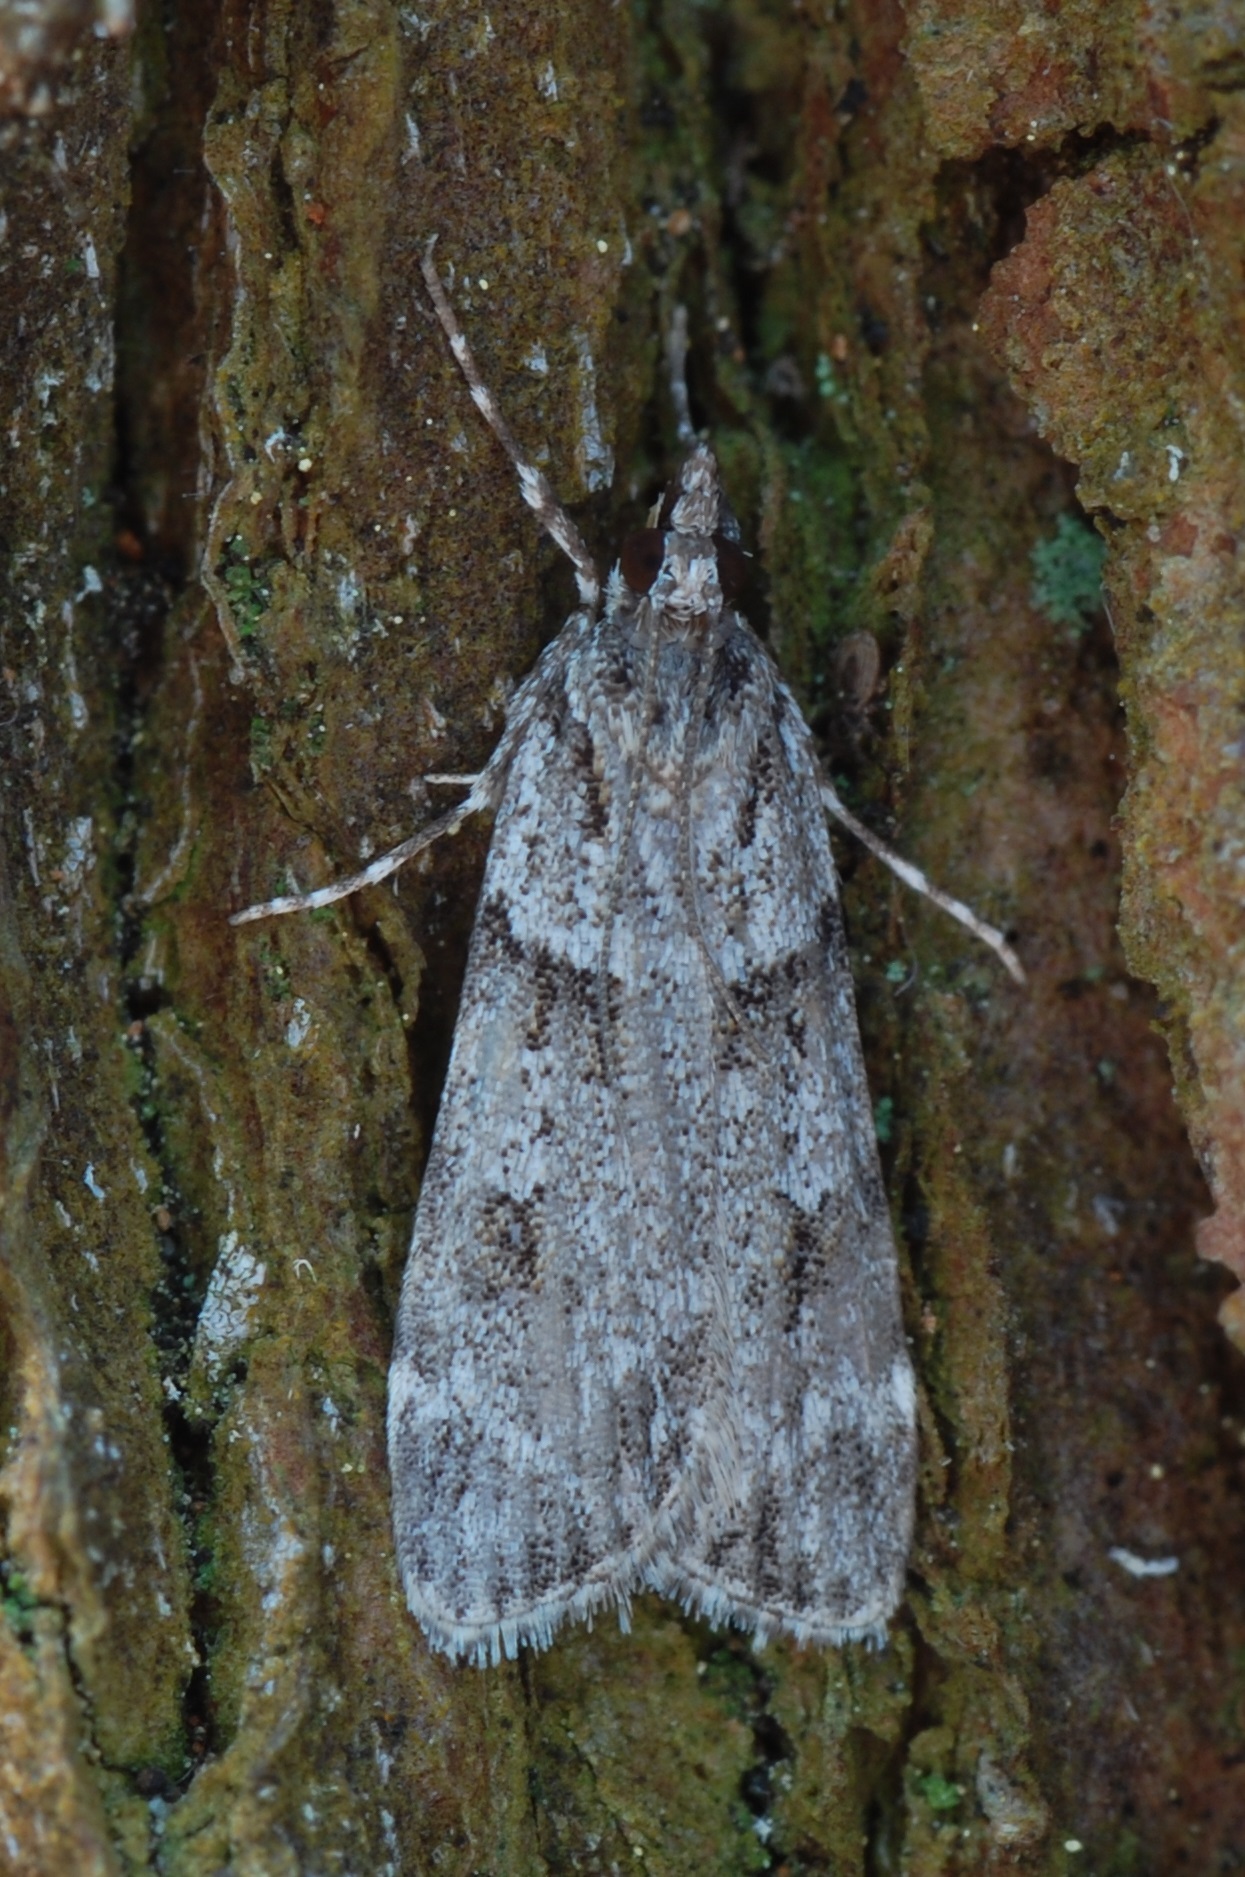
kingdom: Animalia
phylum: Arthropoda
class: Insecta
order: Lepidoptera
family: Crambidae
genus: Scoparia
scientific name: Scoparia biplagialis
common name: Double-striped scoparia moth
